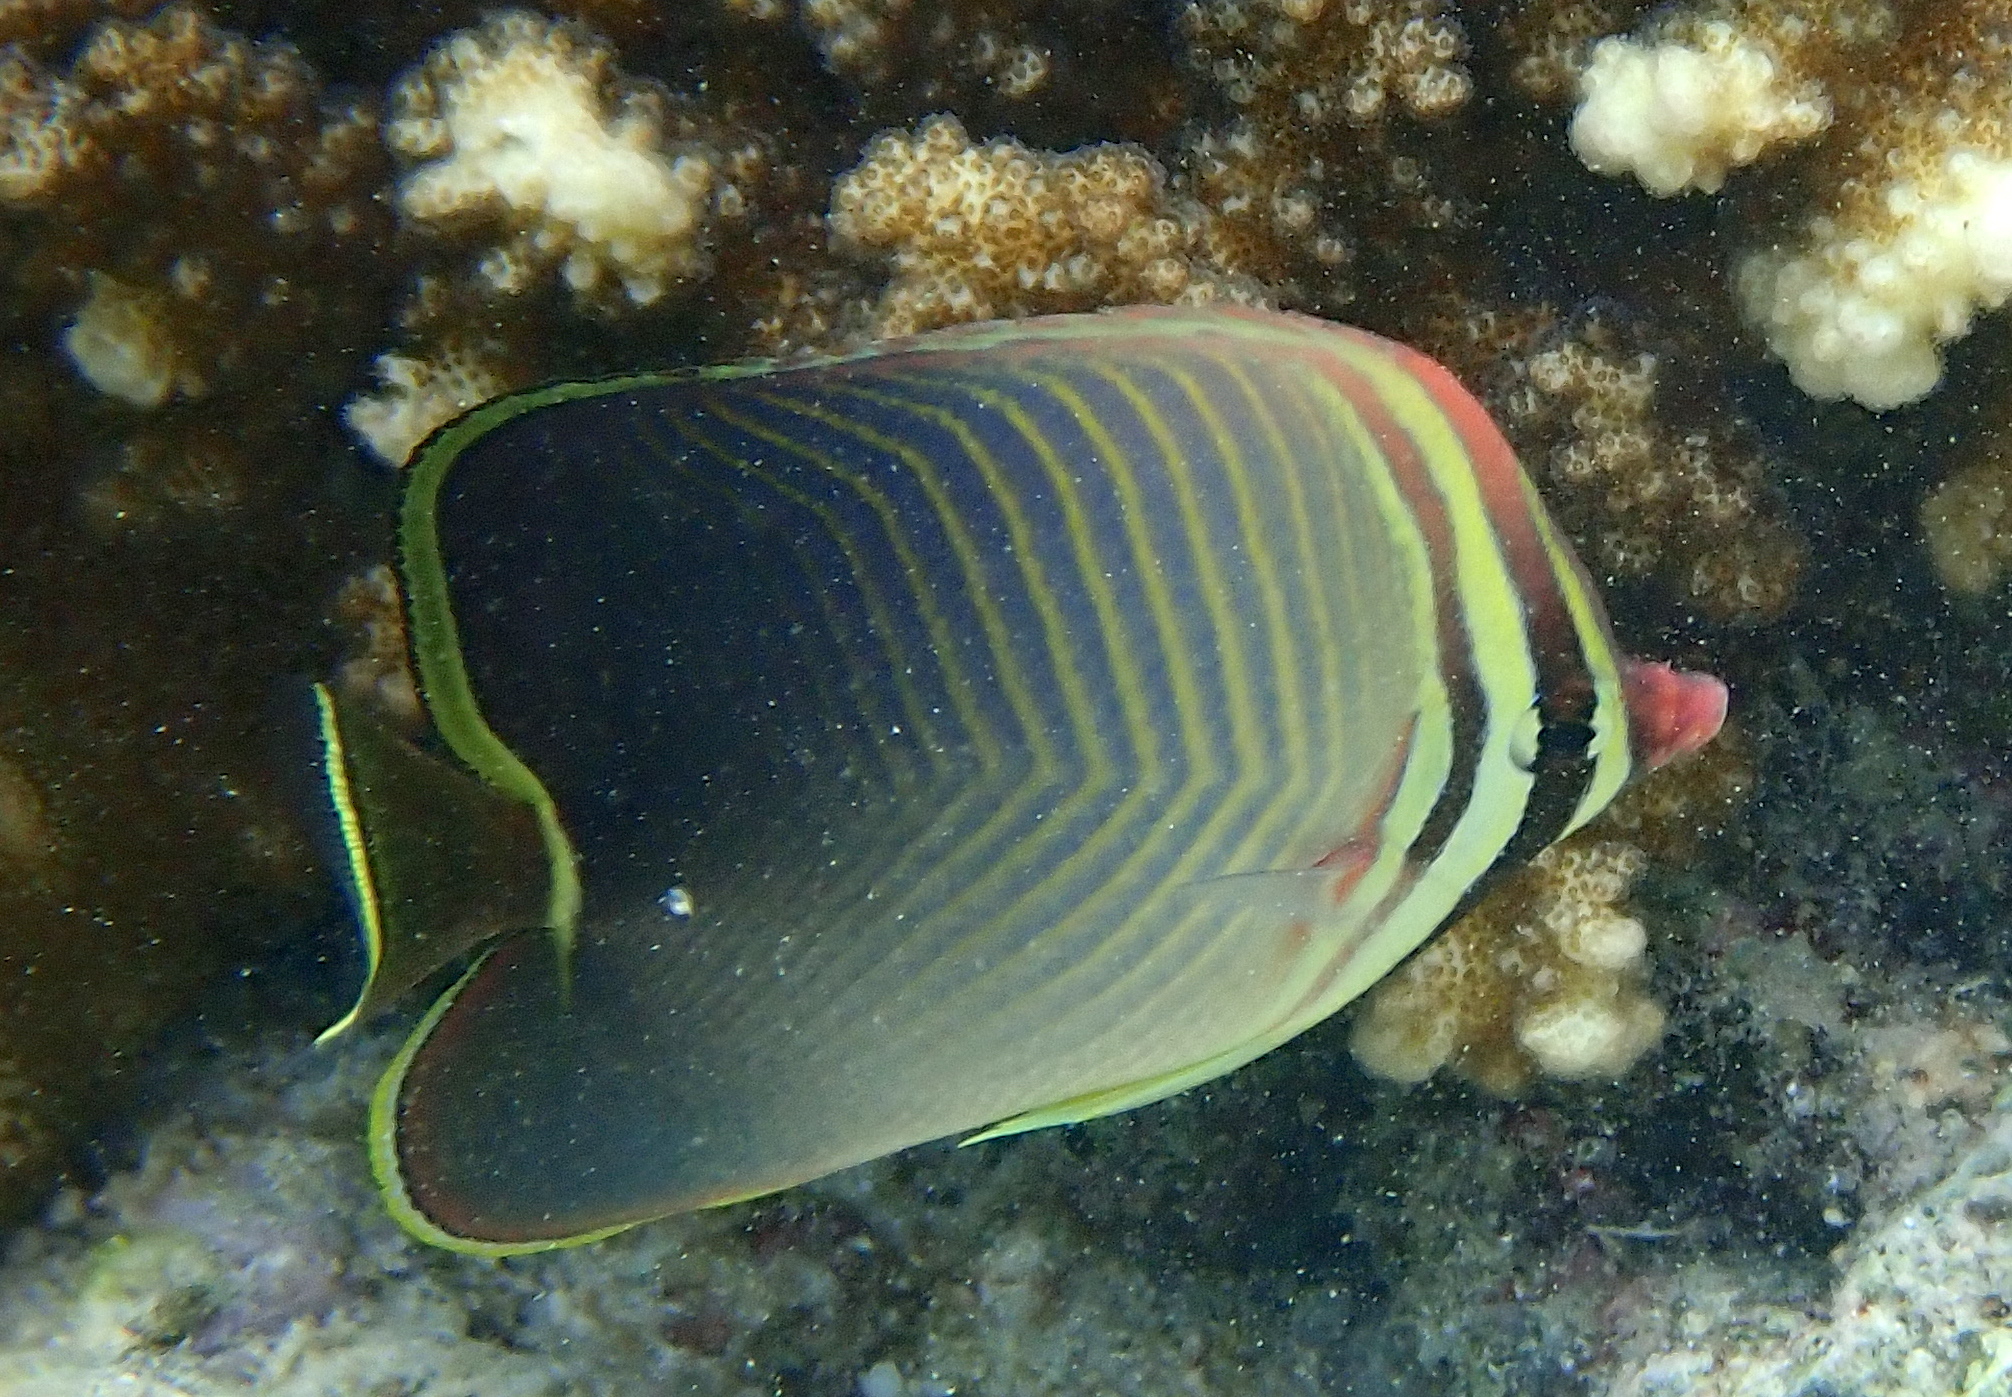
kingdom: Animalia
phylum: Chordata
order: Perciformes
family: Chaetodontidae
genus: Chaetodon
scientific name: Chaetodon baronessa
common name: Triangular butterflyfish
